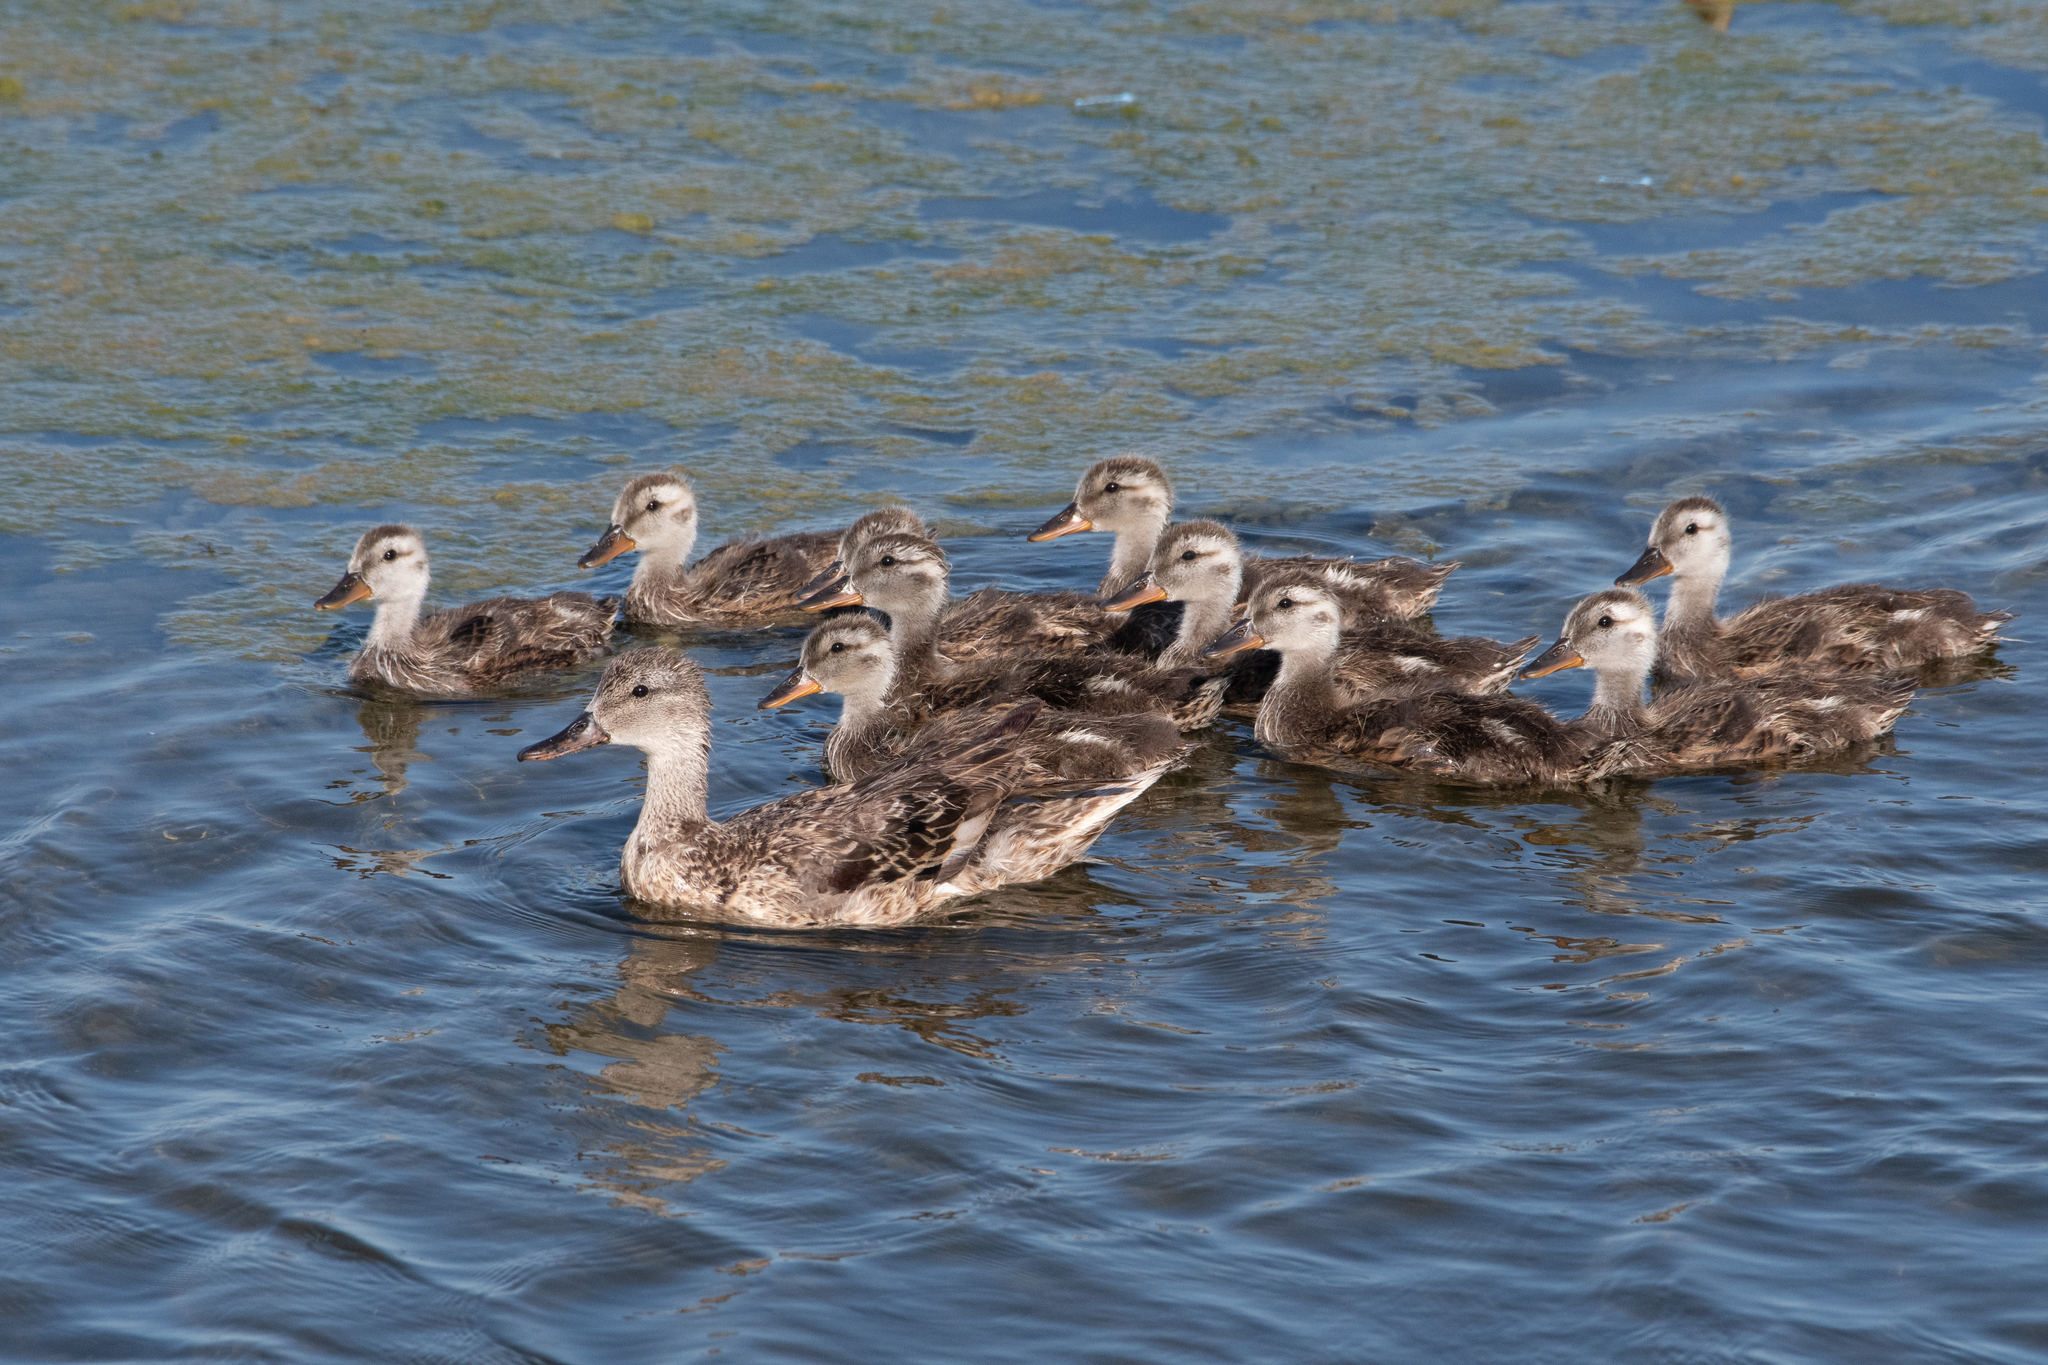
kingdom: Animalia
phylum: Chordata
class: Aves
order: Anseriformes
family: Anatidae
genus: Mareca
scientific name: Mareca strepera
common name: Gadwall
